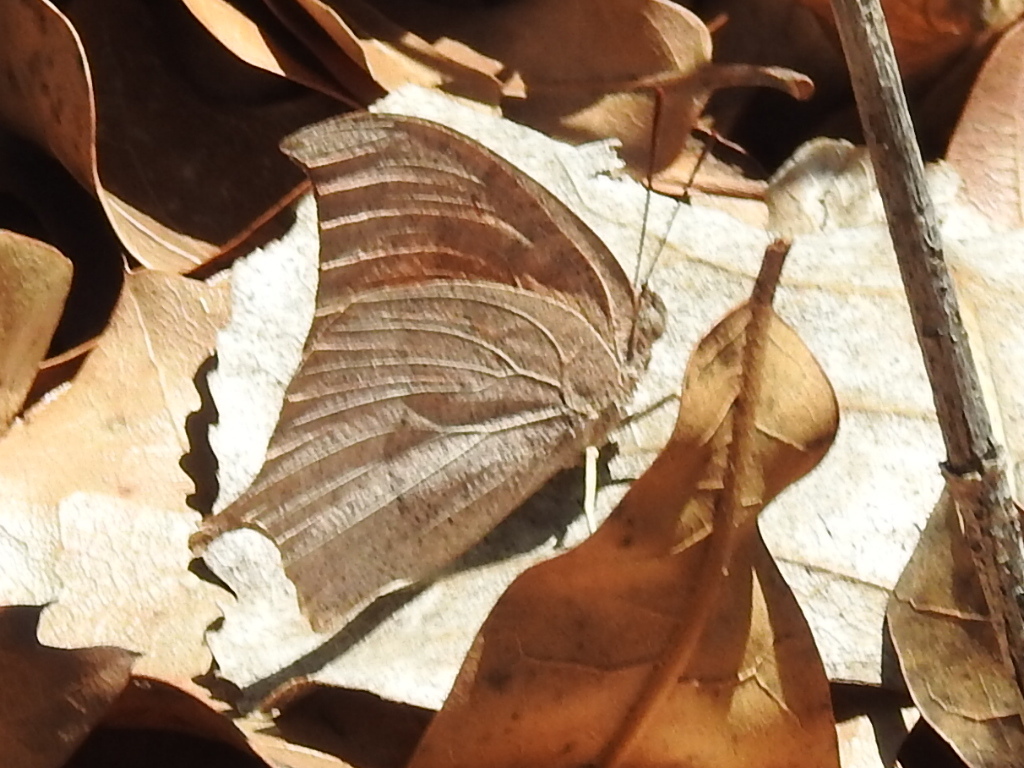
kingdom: Animalia
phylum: Arthropoda
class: Insecta
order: Lepidoptera
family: Nymphalidae
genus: Anaea
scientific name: Anaea andria
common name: Goatweed leafwing
